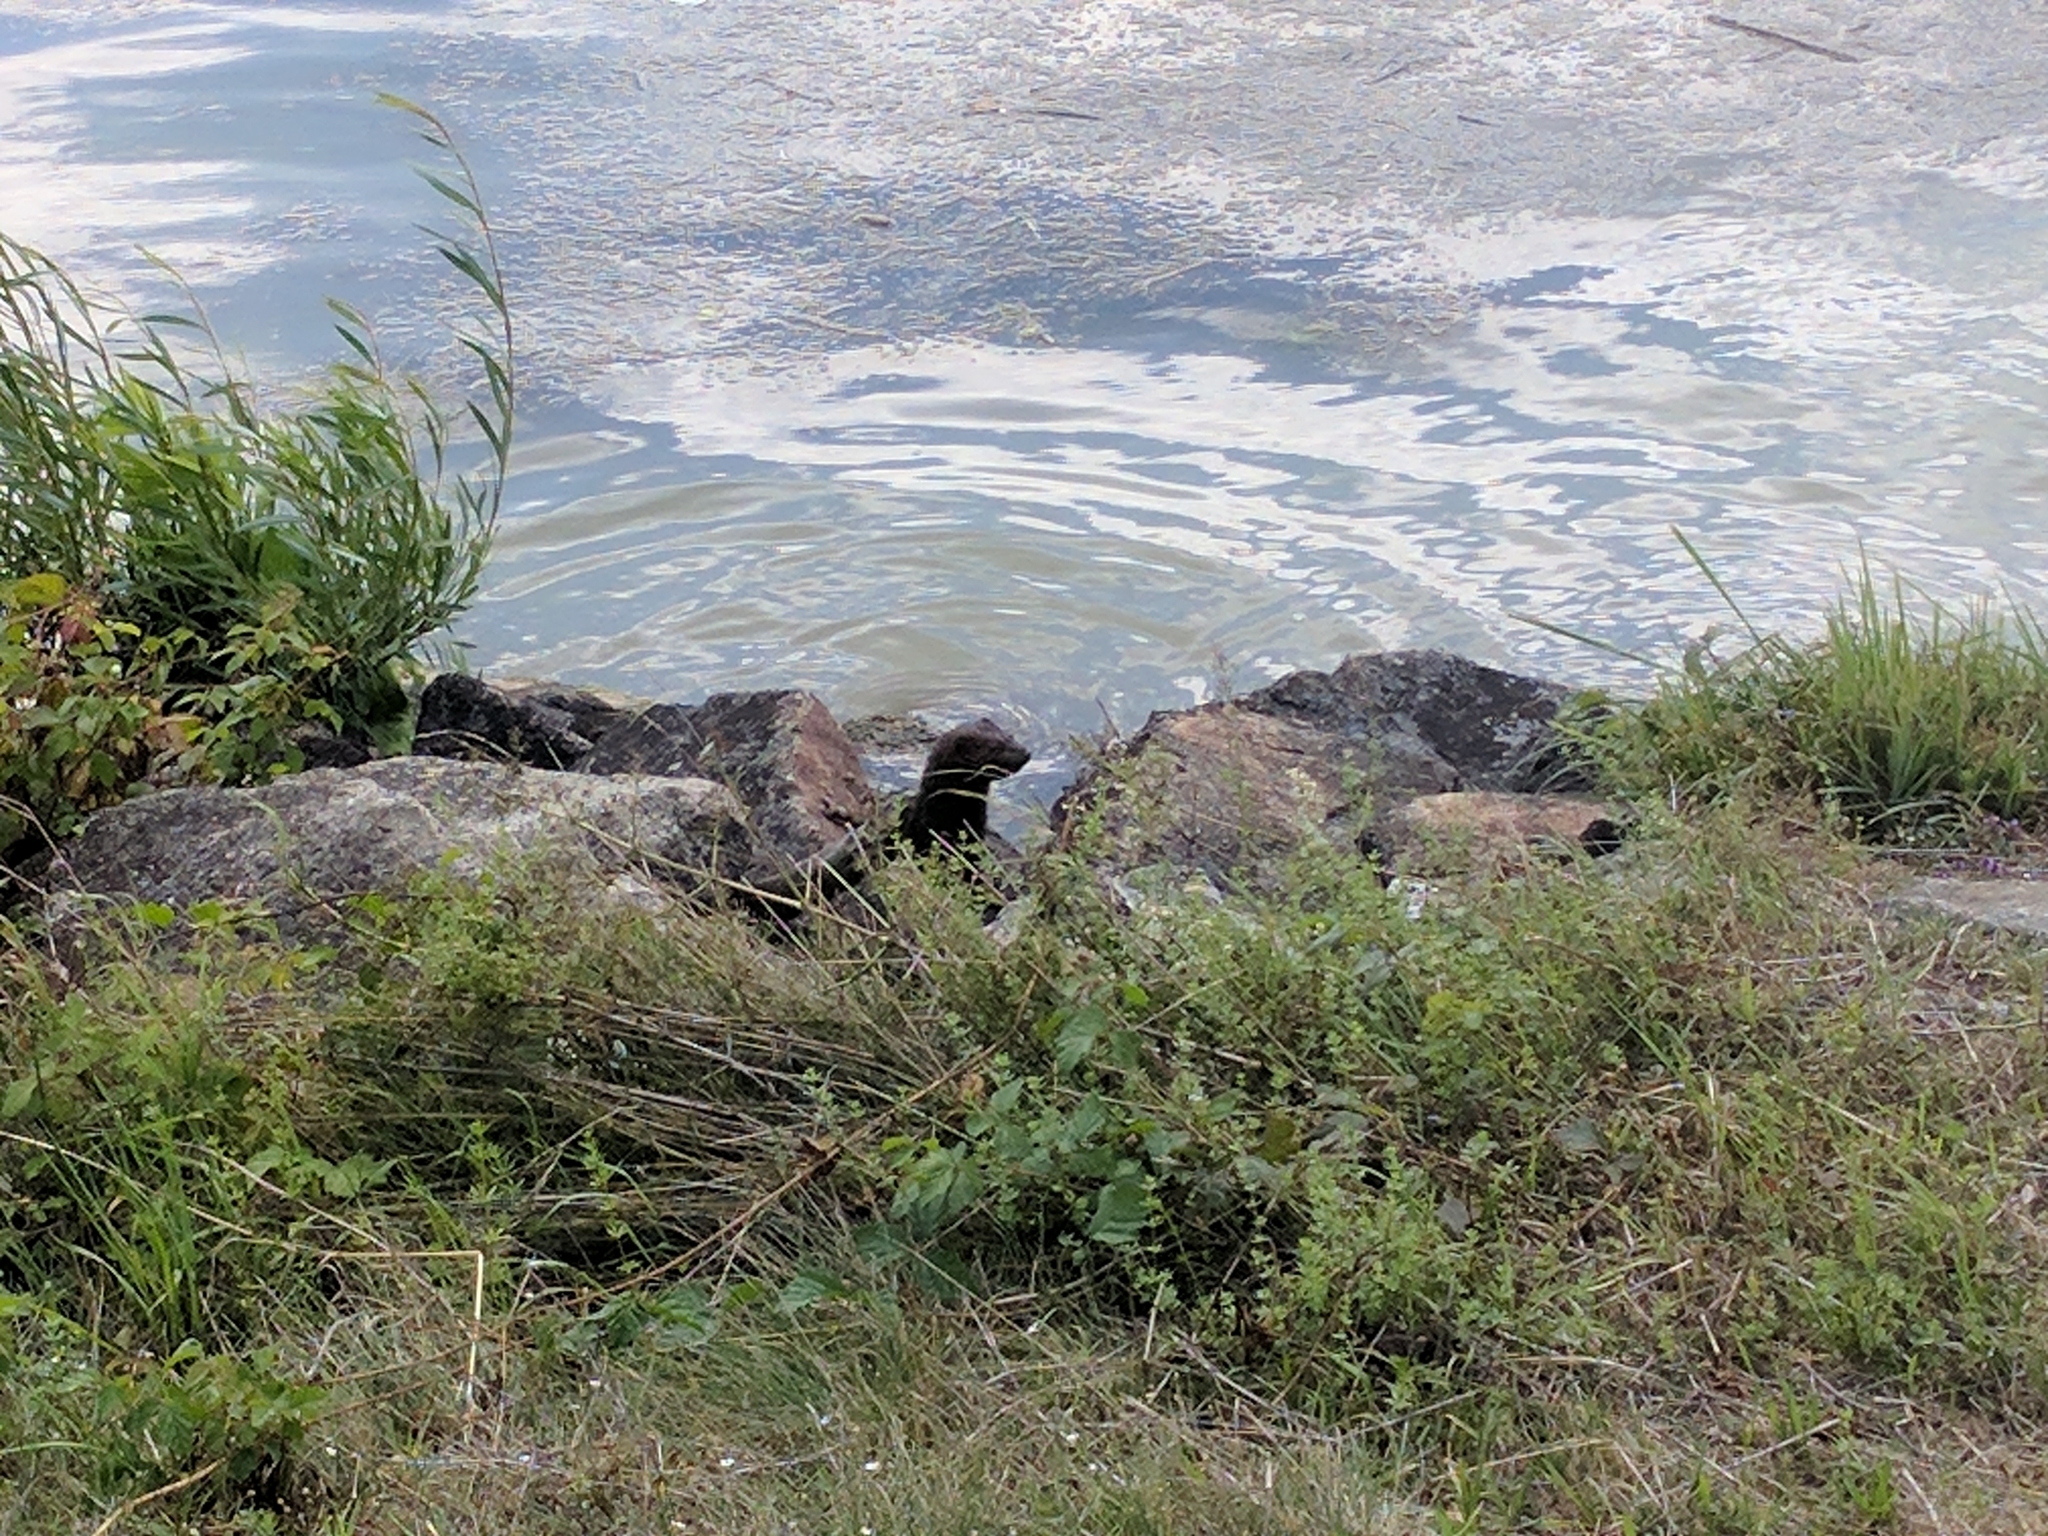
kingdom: Animalia
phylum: Chordata
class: Mammalia
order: Carnivora
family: Mustelidae
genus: Mustela
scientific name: Mustela
